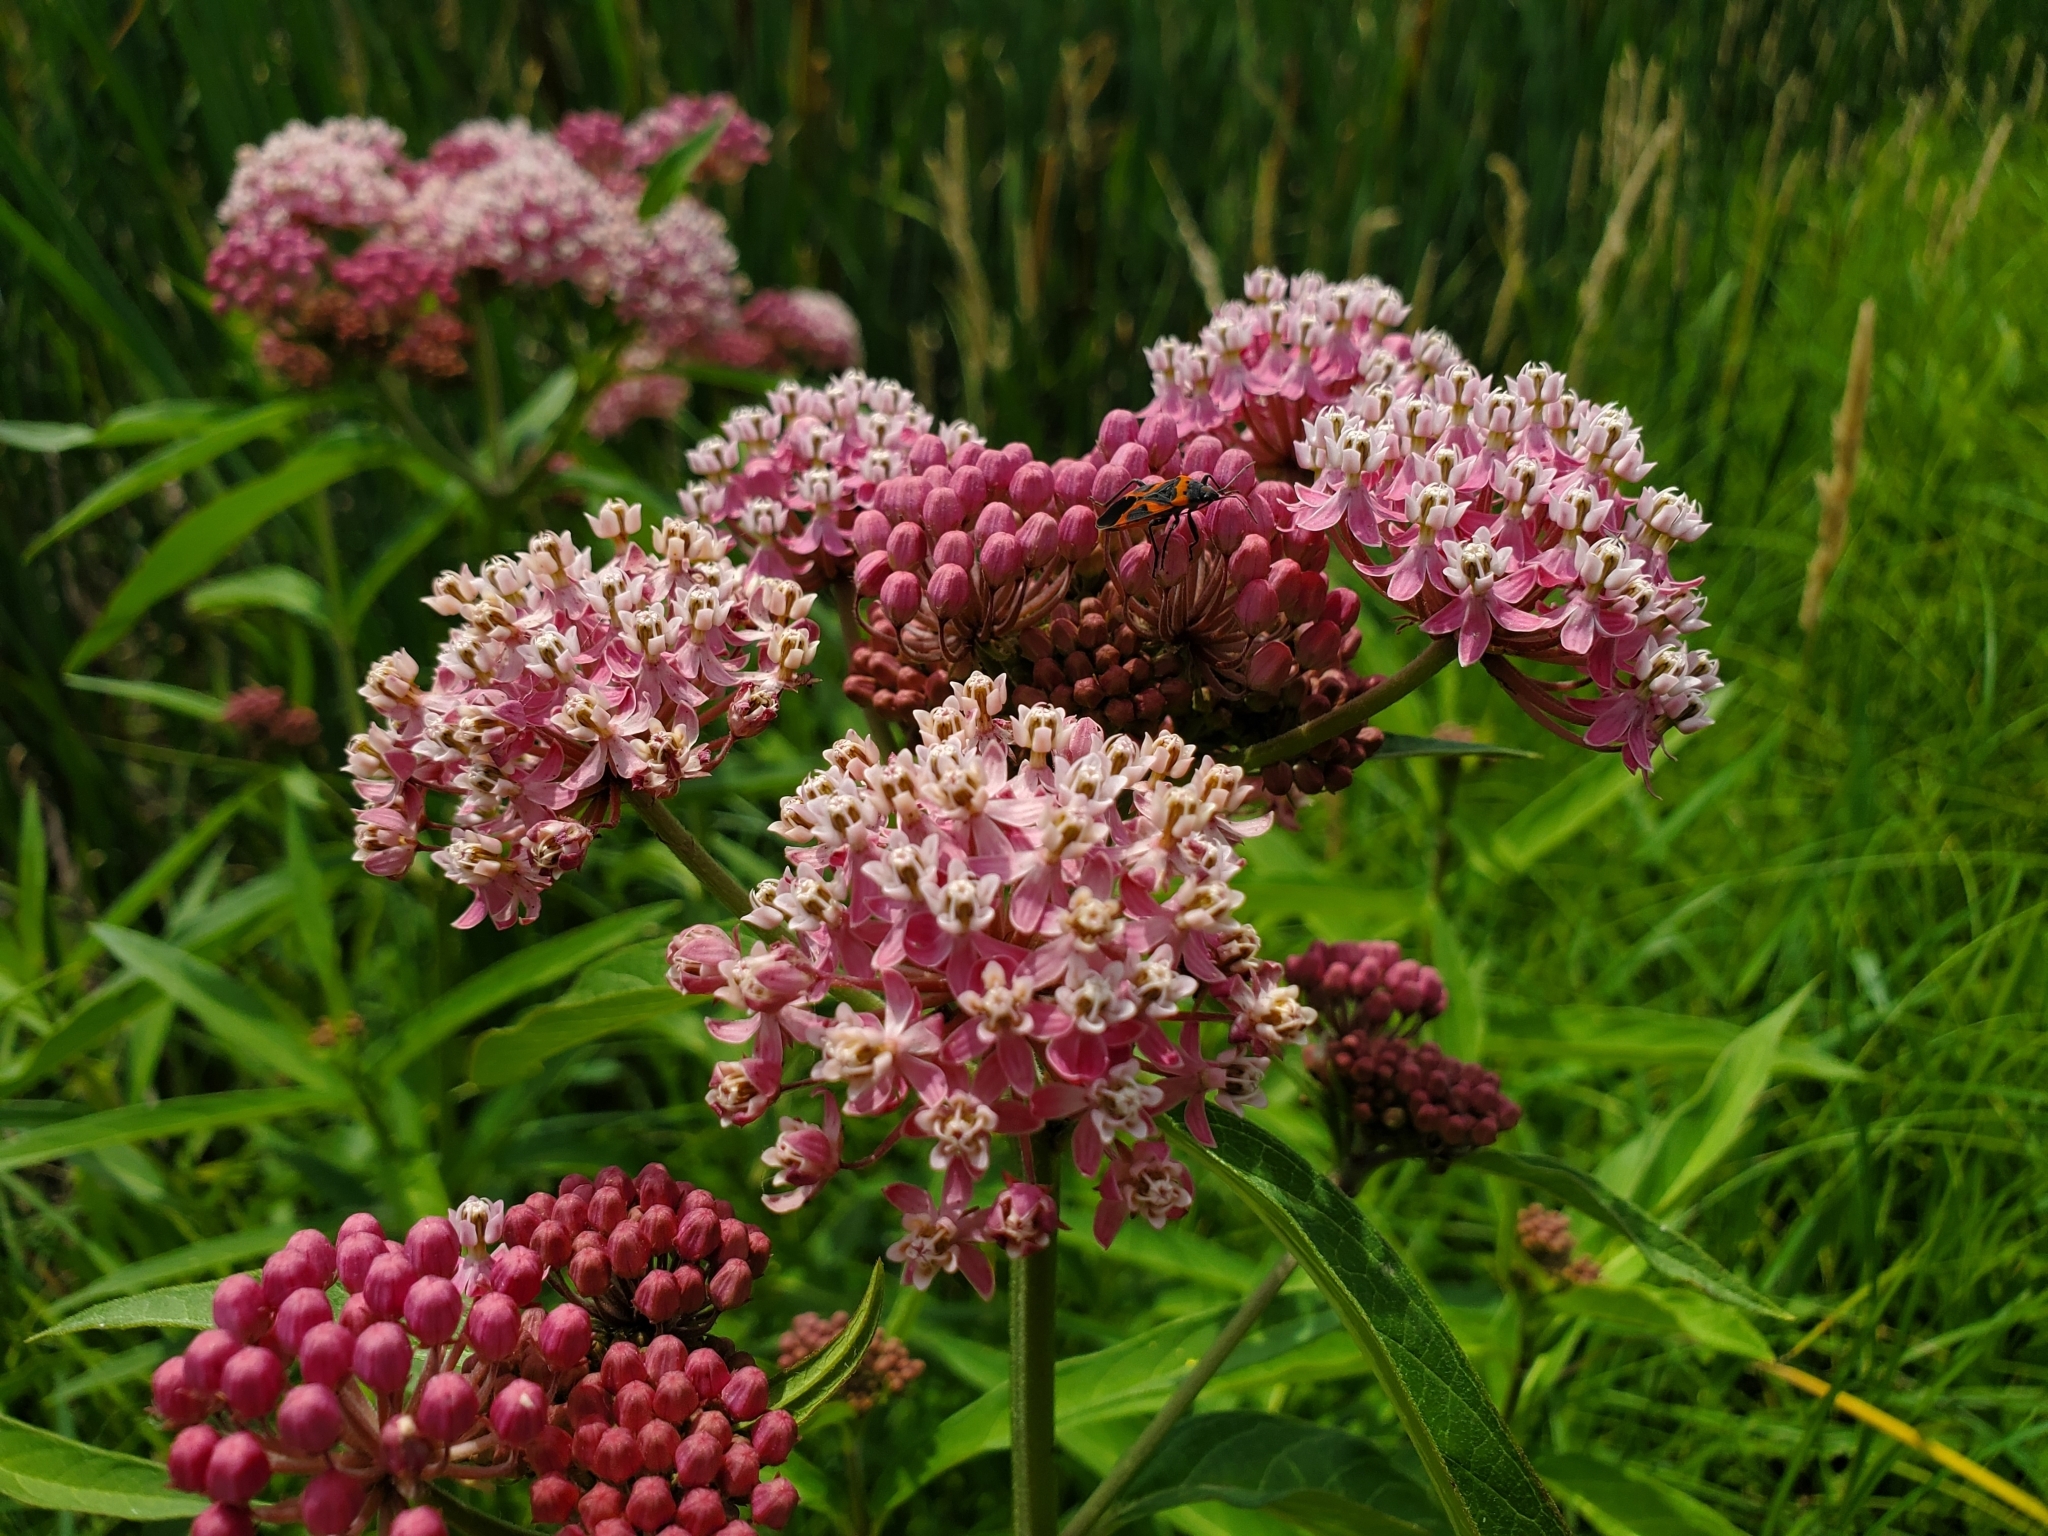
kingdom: Plantae
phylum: Tracheophyta
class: Magnoliopsida
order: Gentianales
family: Apocynaceae
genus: Asclepias
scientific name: Asclepias incarnata
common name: Swamp milkweed
